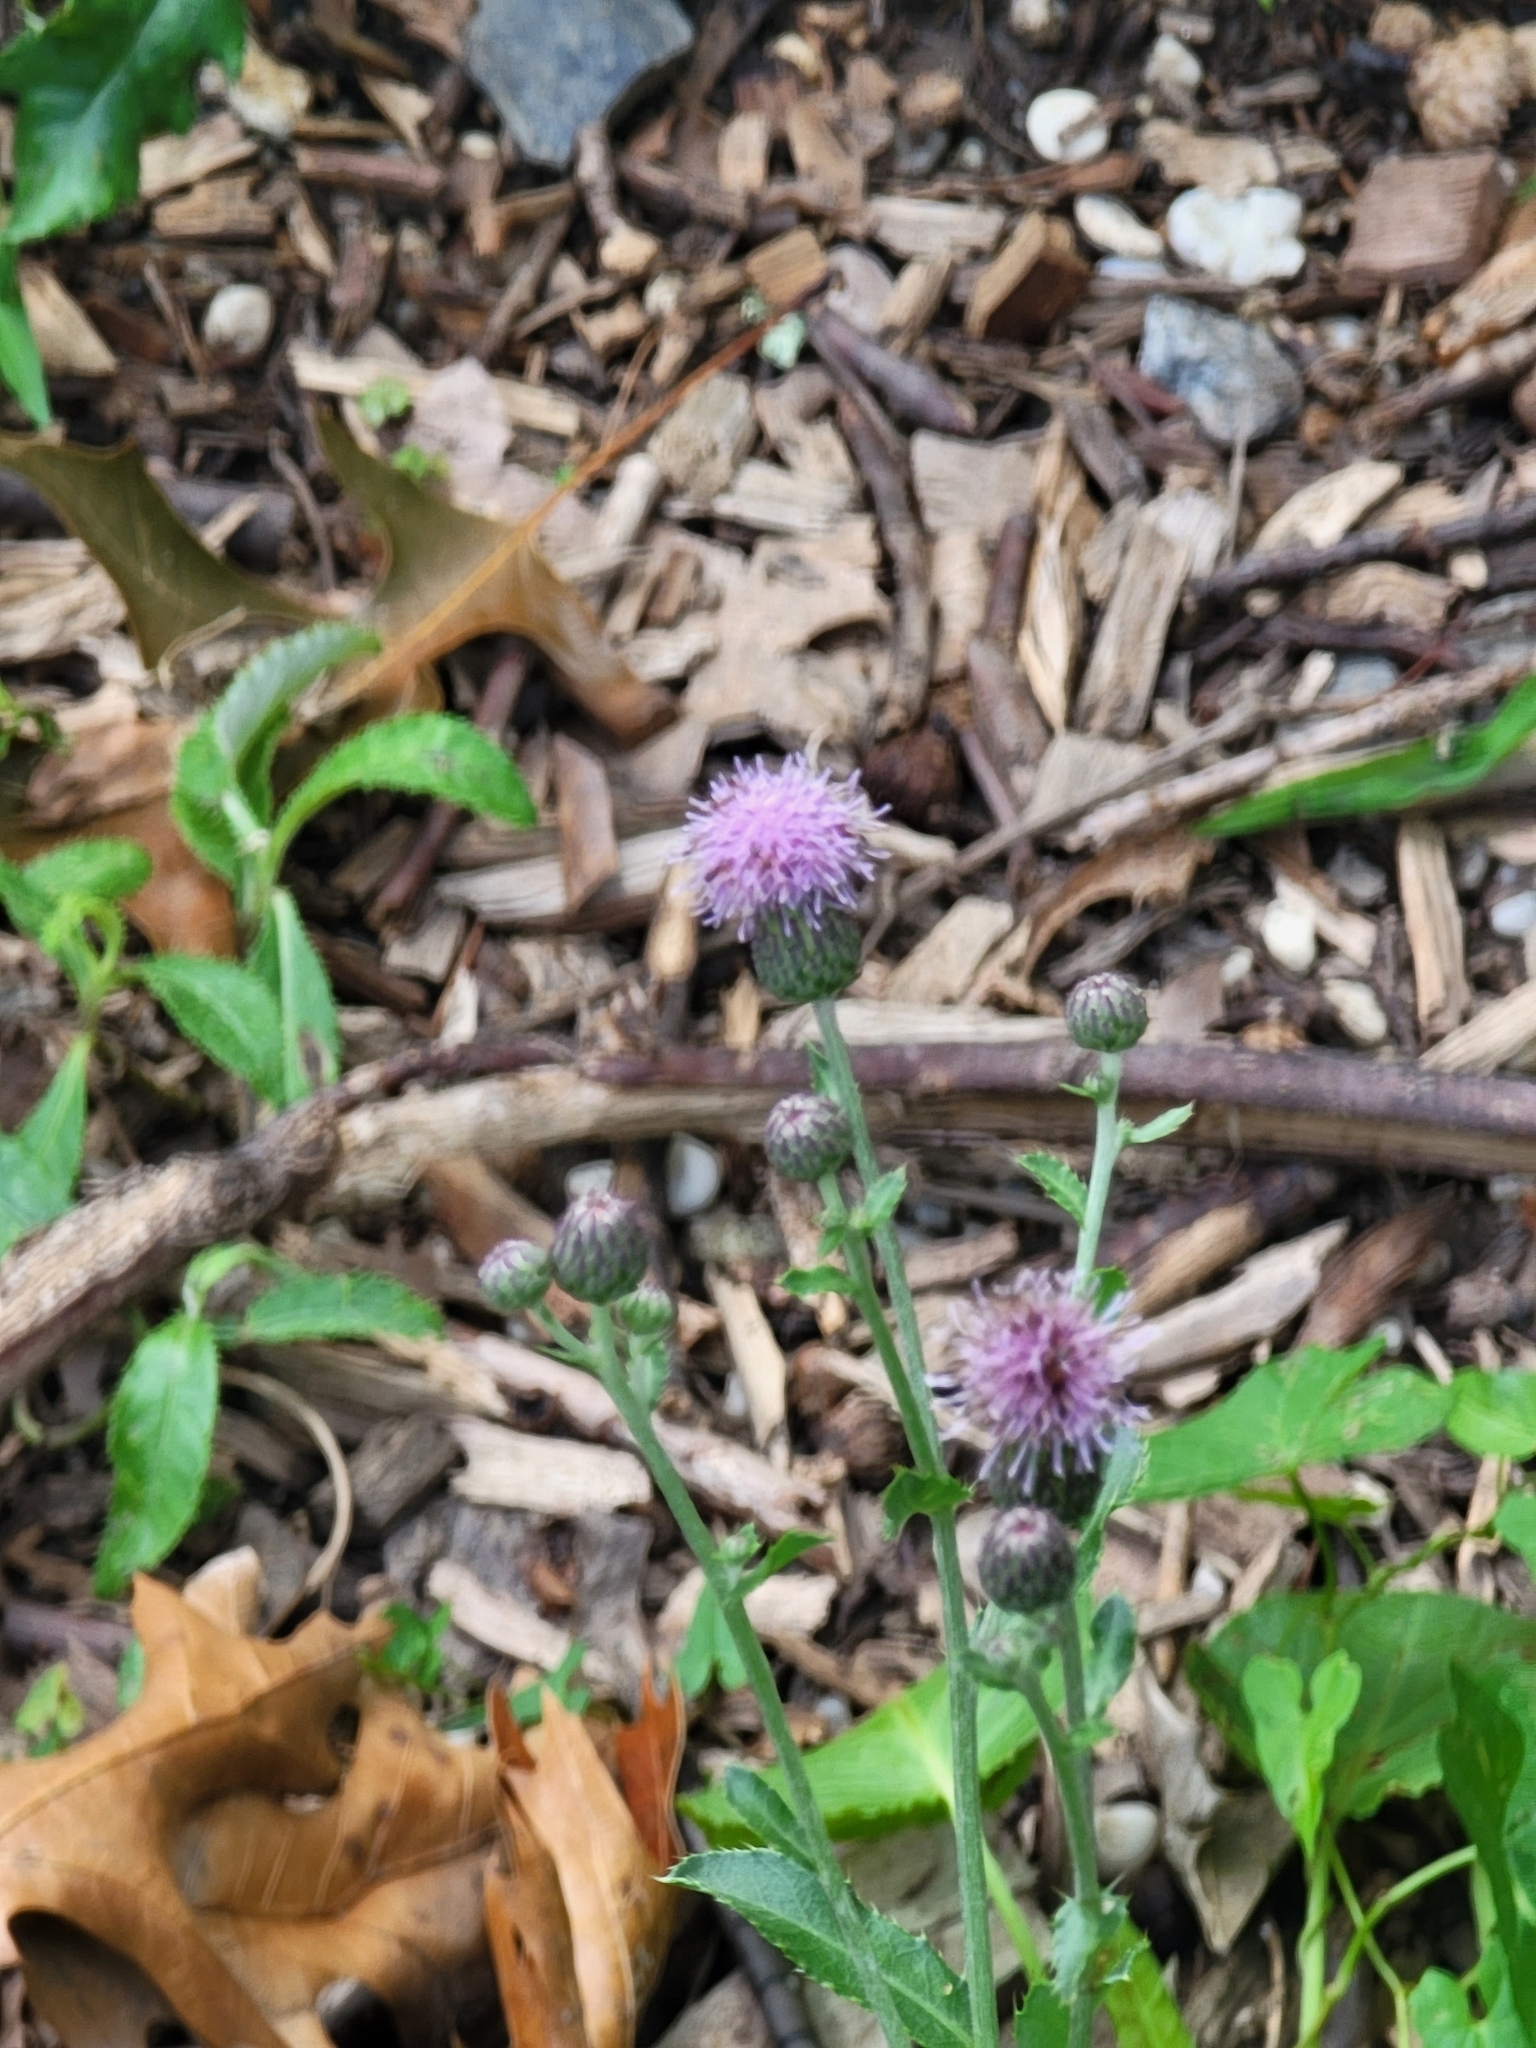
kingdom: Plantae
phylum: Tracheophyta
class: Magnoliopsida
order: Asterales
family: Asteraceae
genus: Cirsium
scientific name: Cirsium arvense
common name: Creeping thistle
